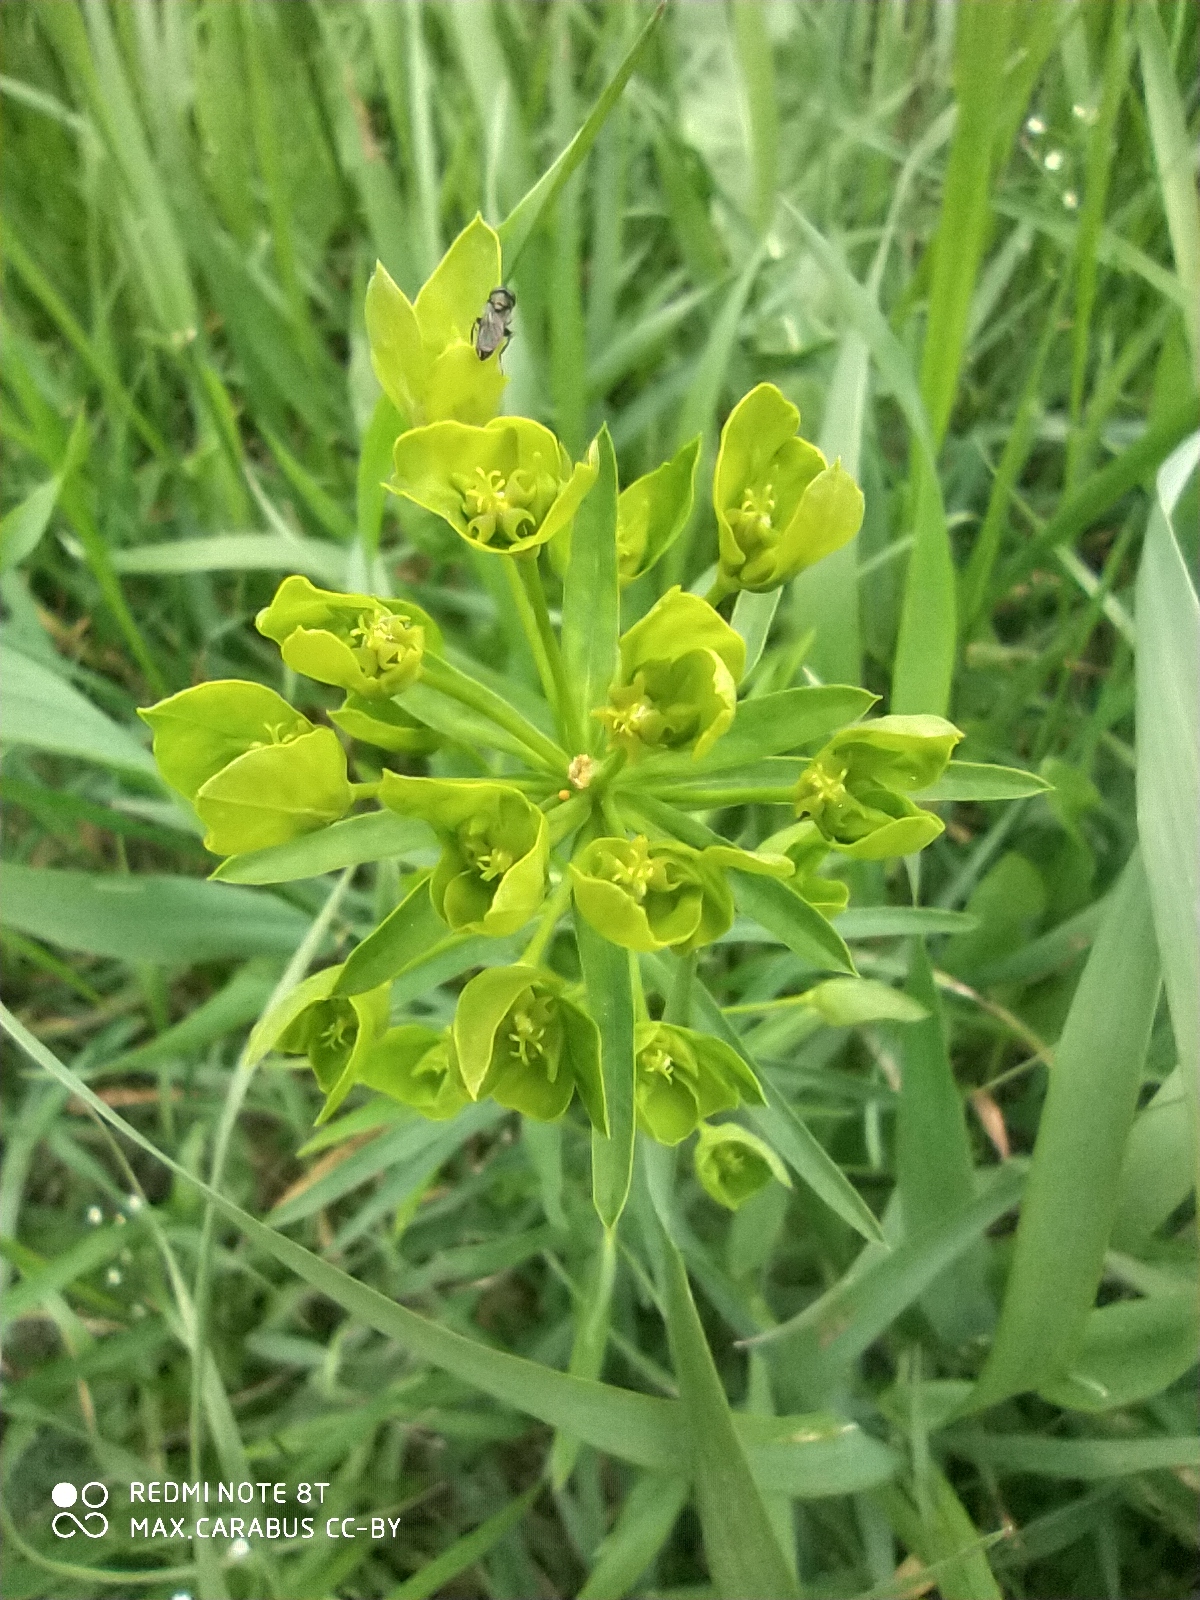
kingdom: Plantae
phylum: Tracheophyta
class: Magnoliopsida
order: Malpighiales
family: Euphorbiaceae
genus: Euphorbia
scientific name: Euphorbia virgata
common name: Leafy spurge
